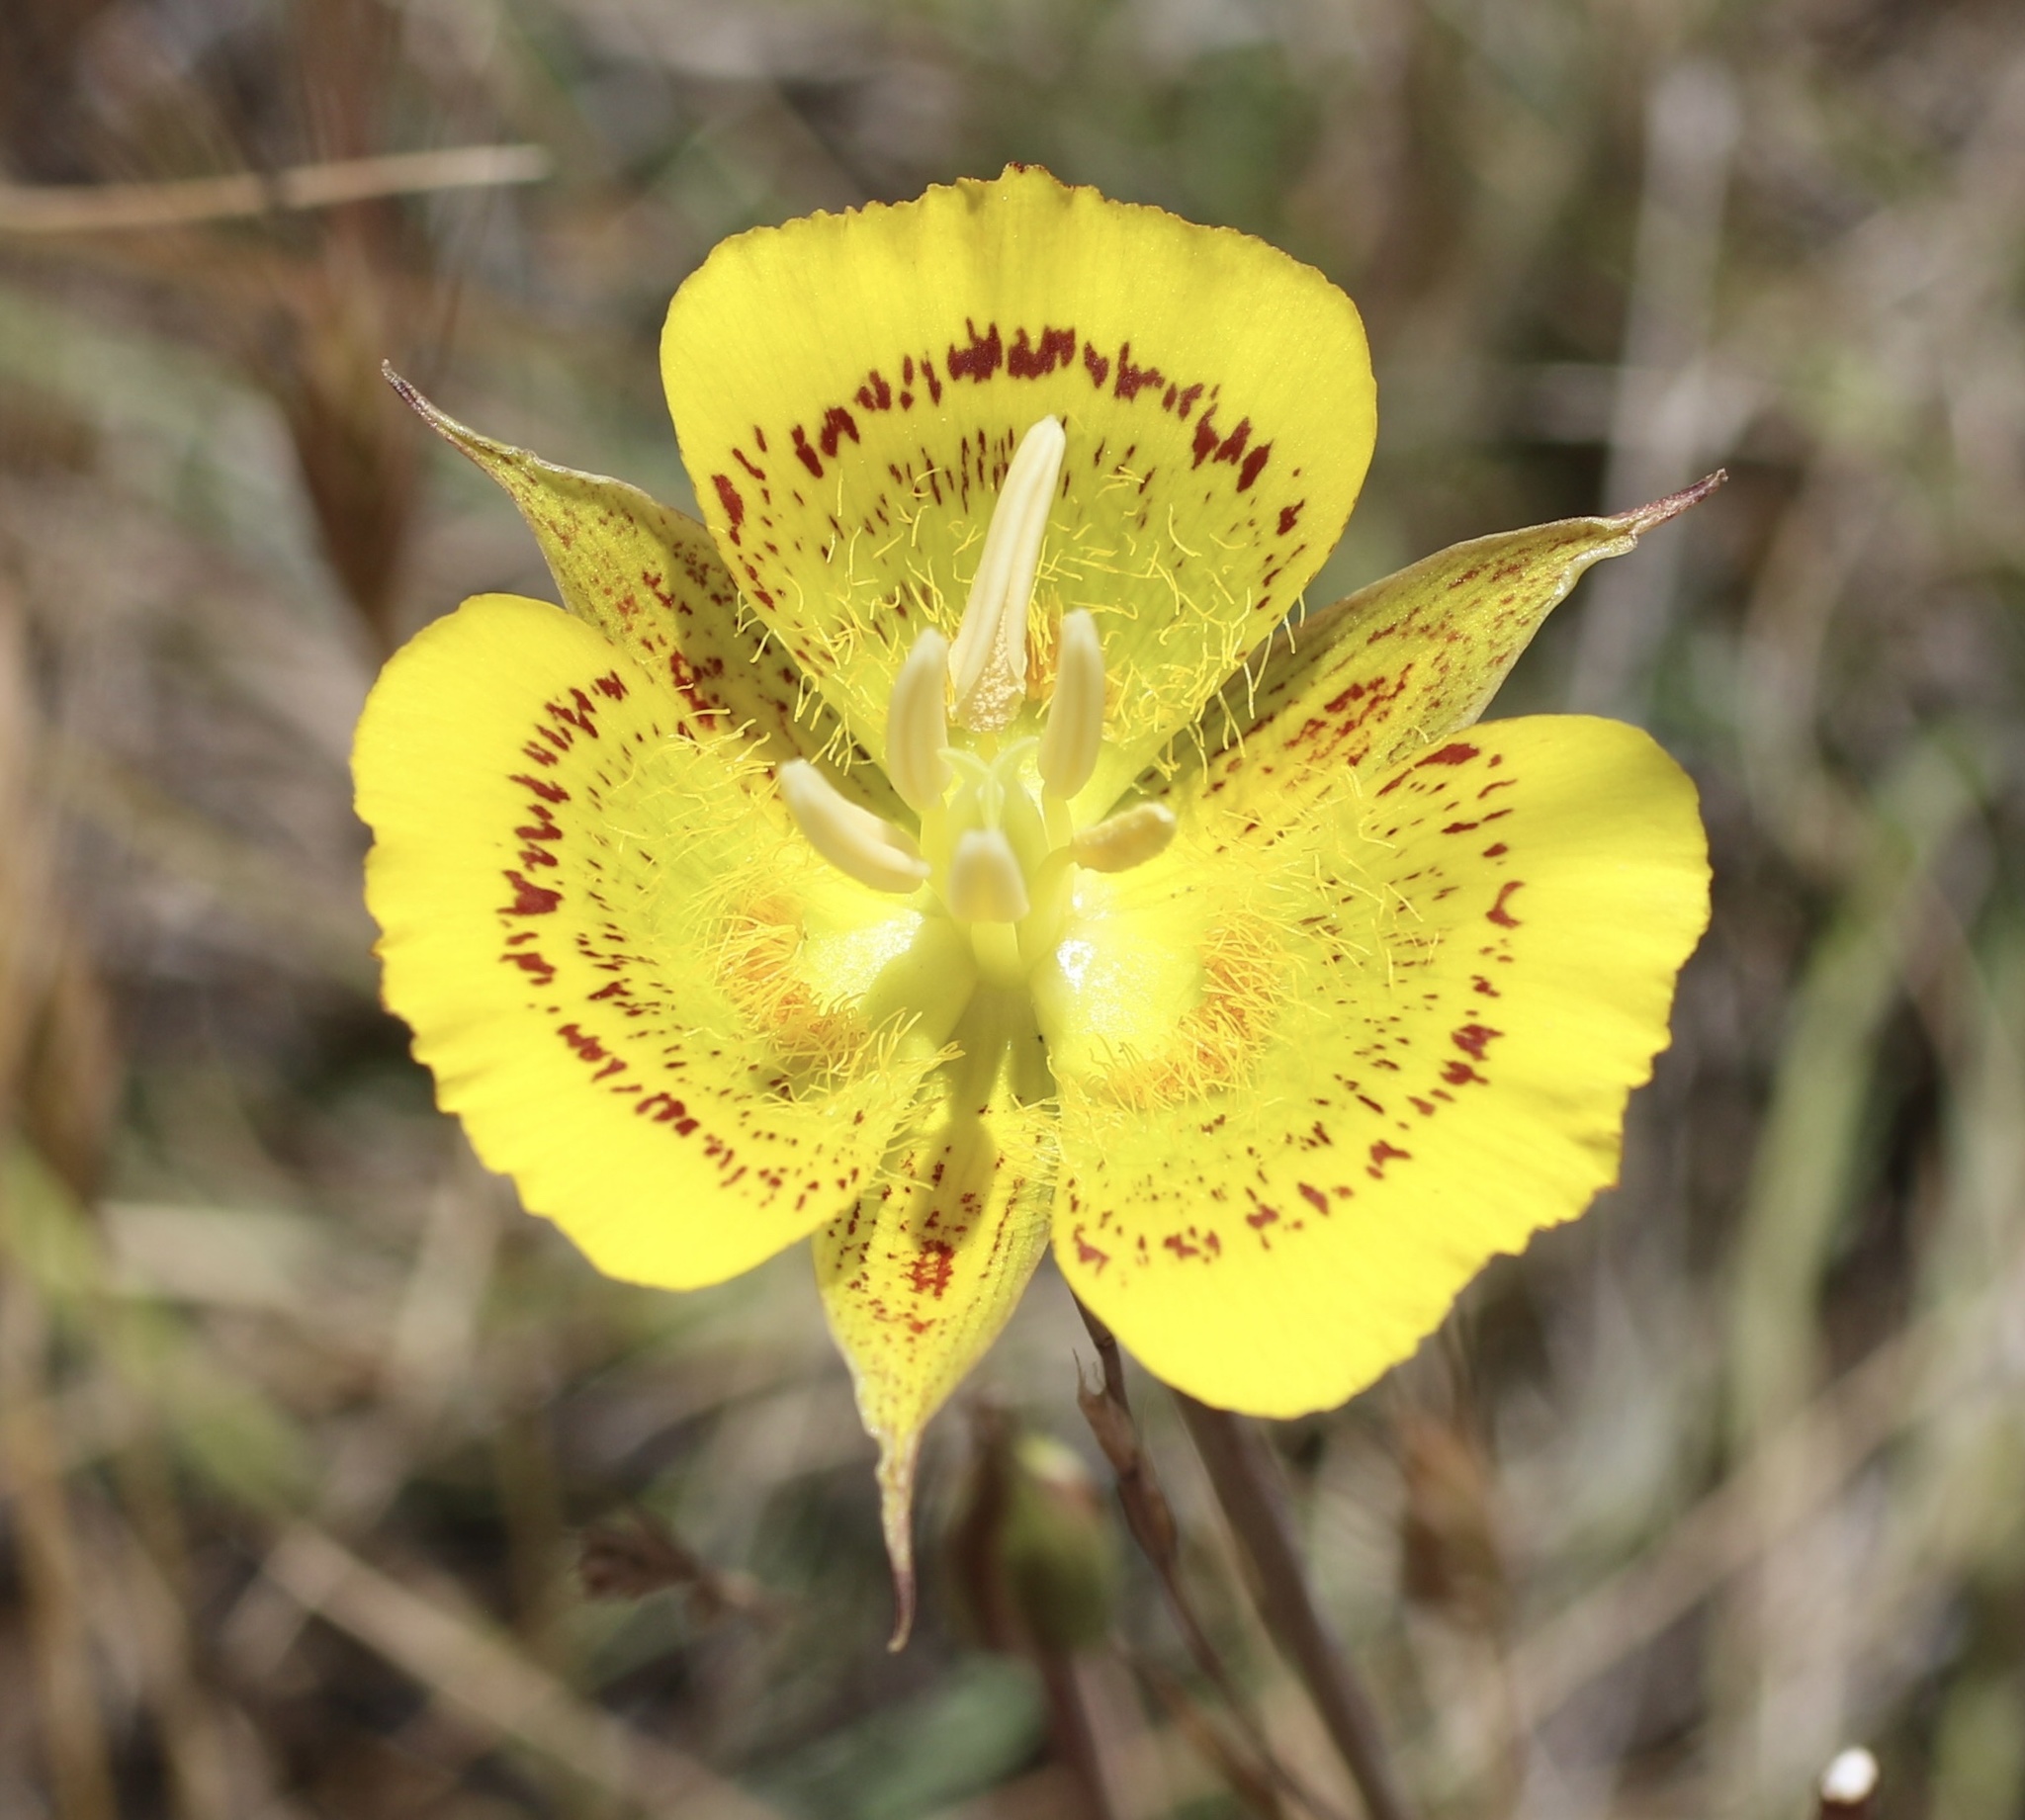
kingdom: Plantae
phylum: Tracheophyta
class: Liliopsida
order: Liliales
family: Liliaceae
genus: Calochortus
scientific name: Calochortus luteus
